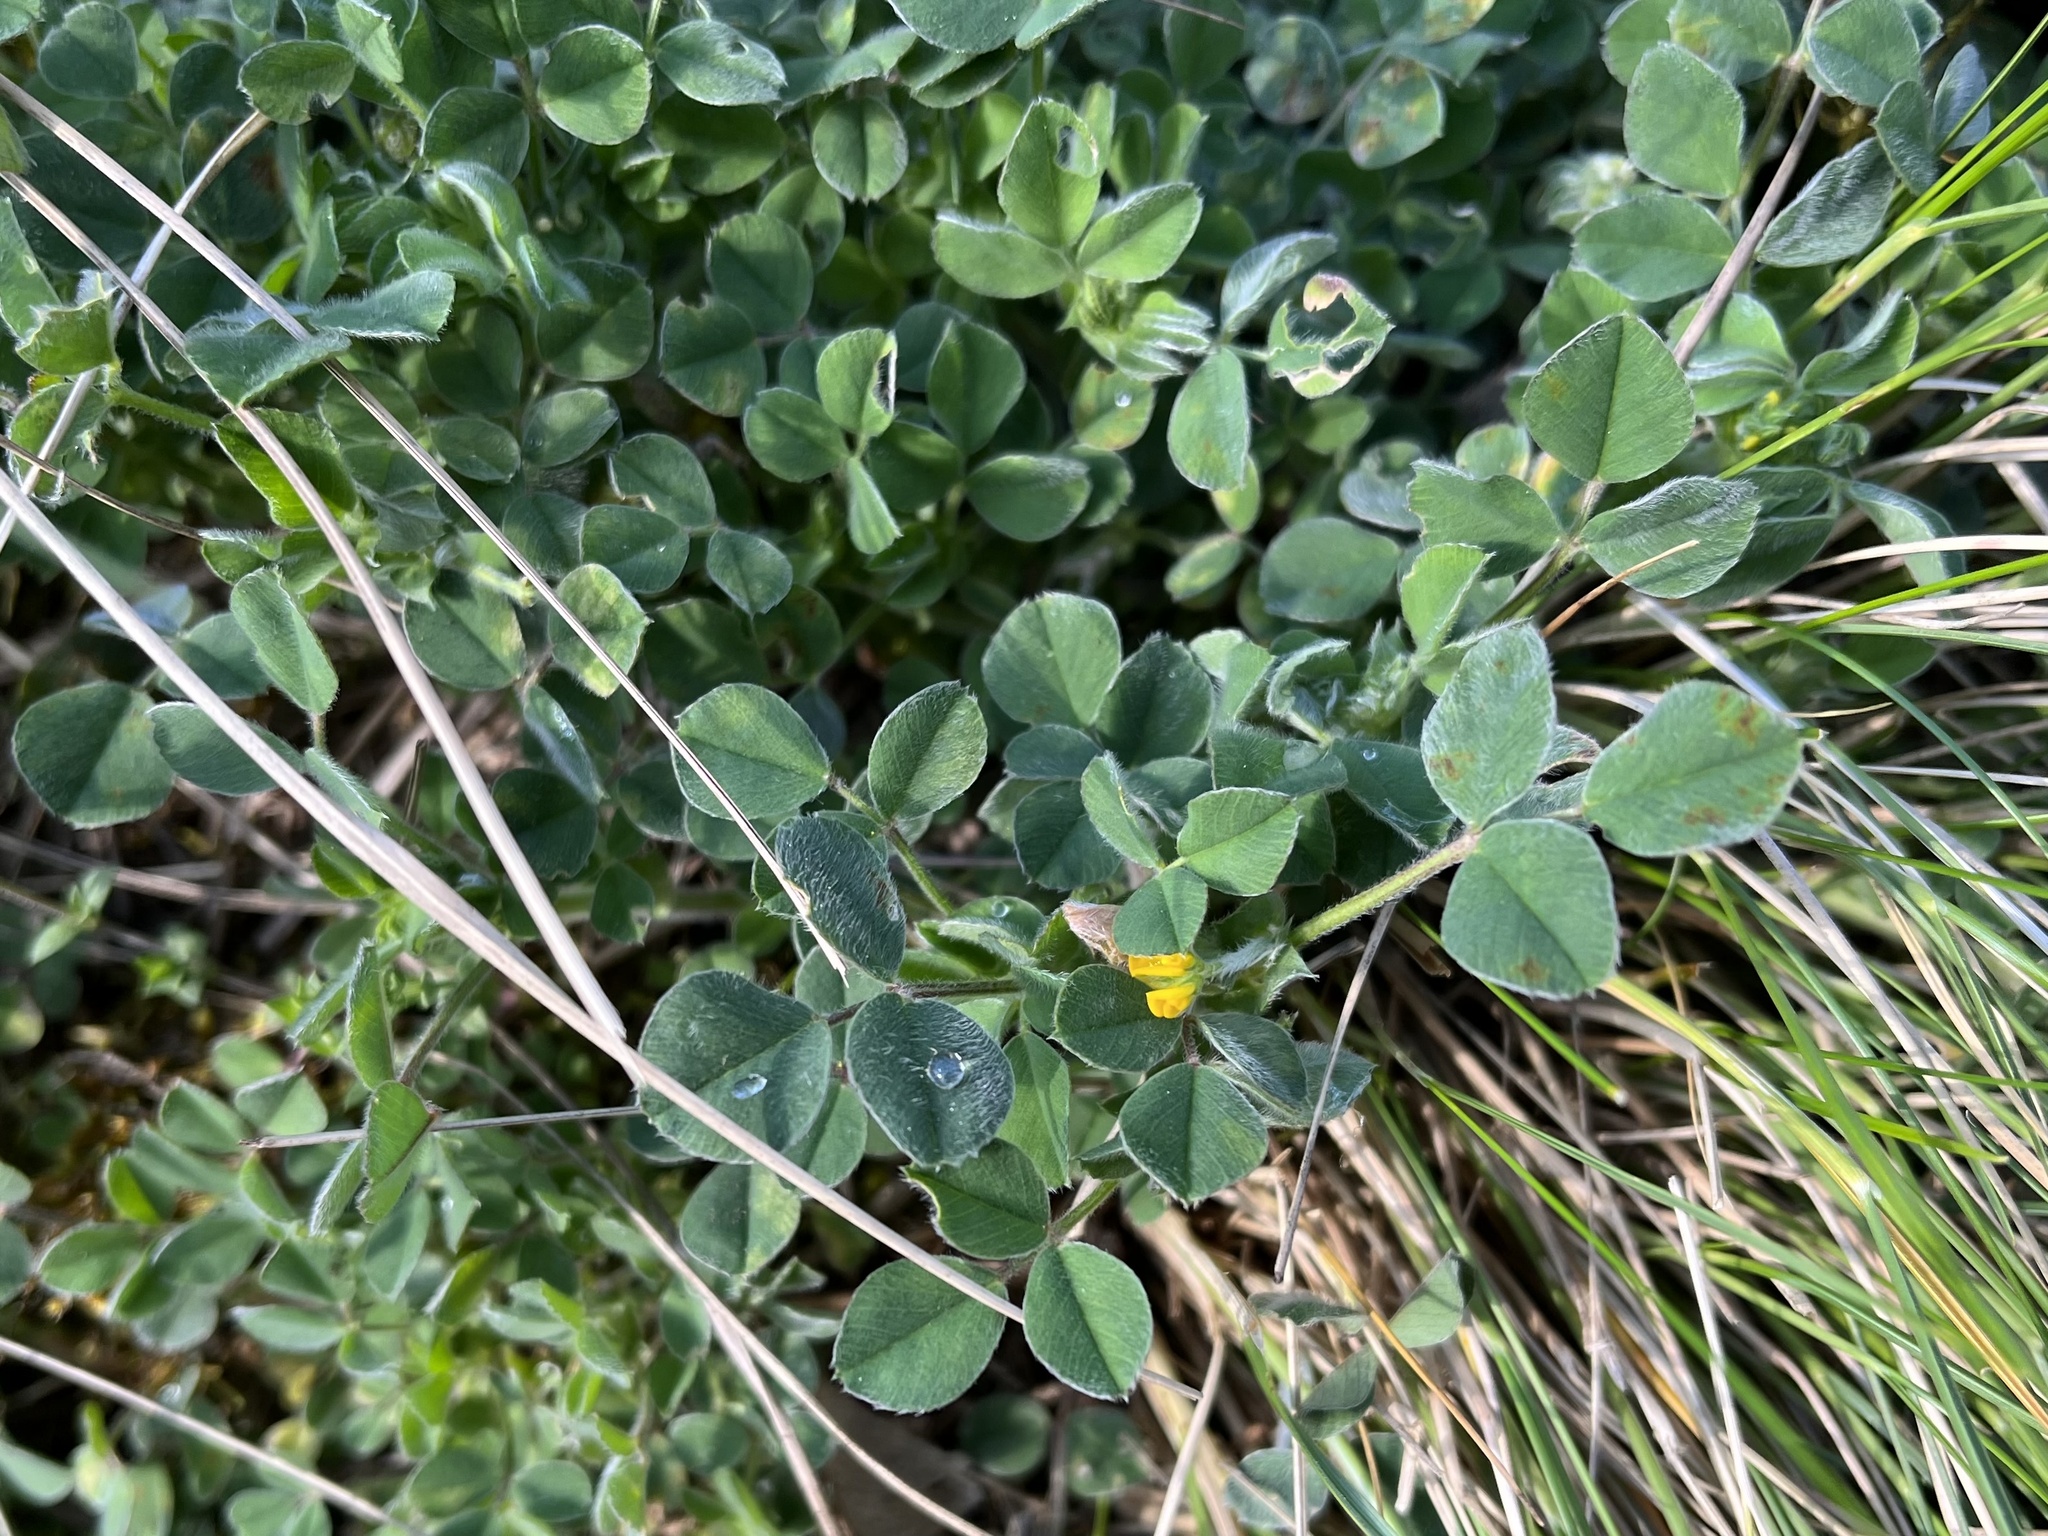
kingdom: Plantae
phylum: Tracheophyta
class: Magnoliopsida
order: Fabales
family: Fabaceae
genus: Medicago
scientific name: Medicago minima
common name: Little bur-clover
